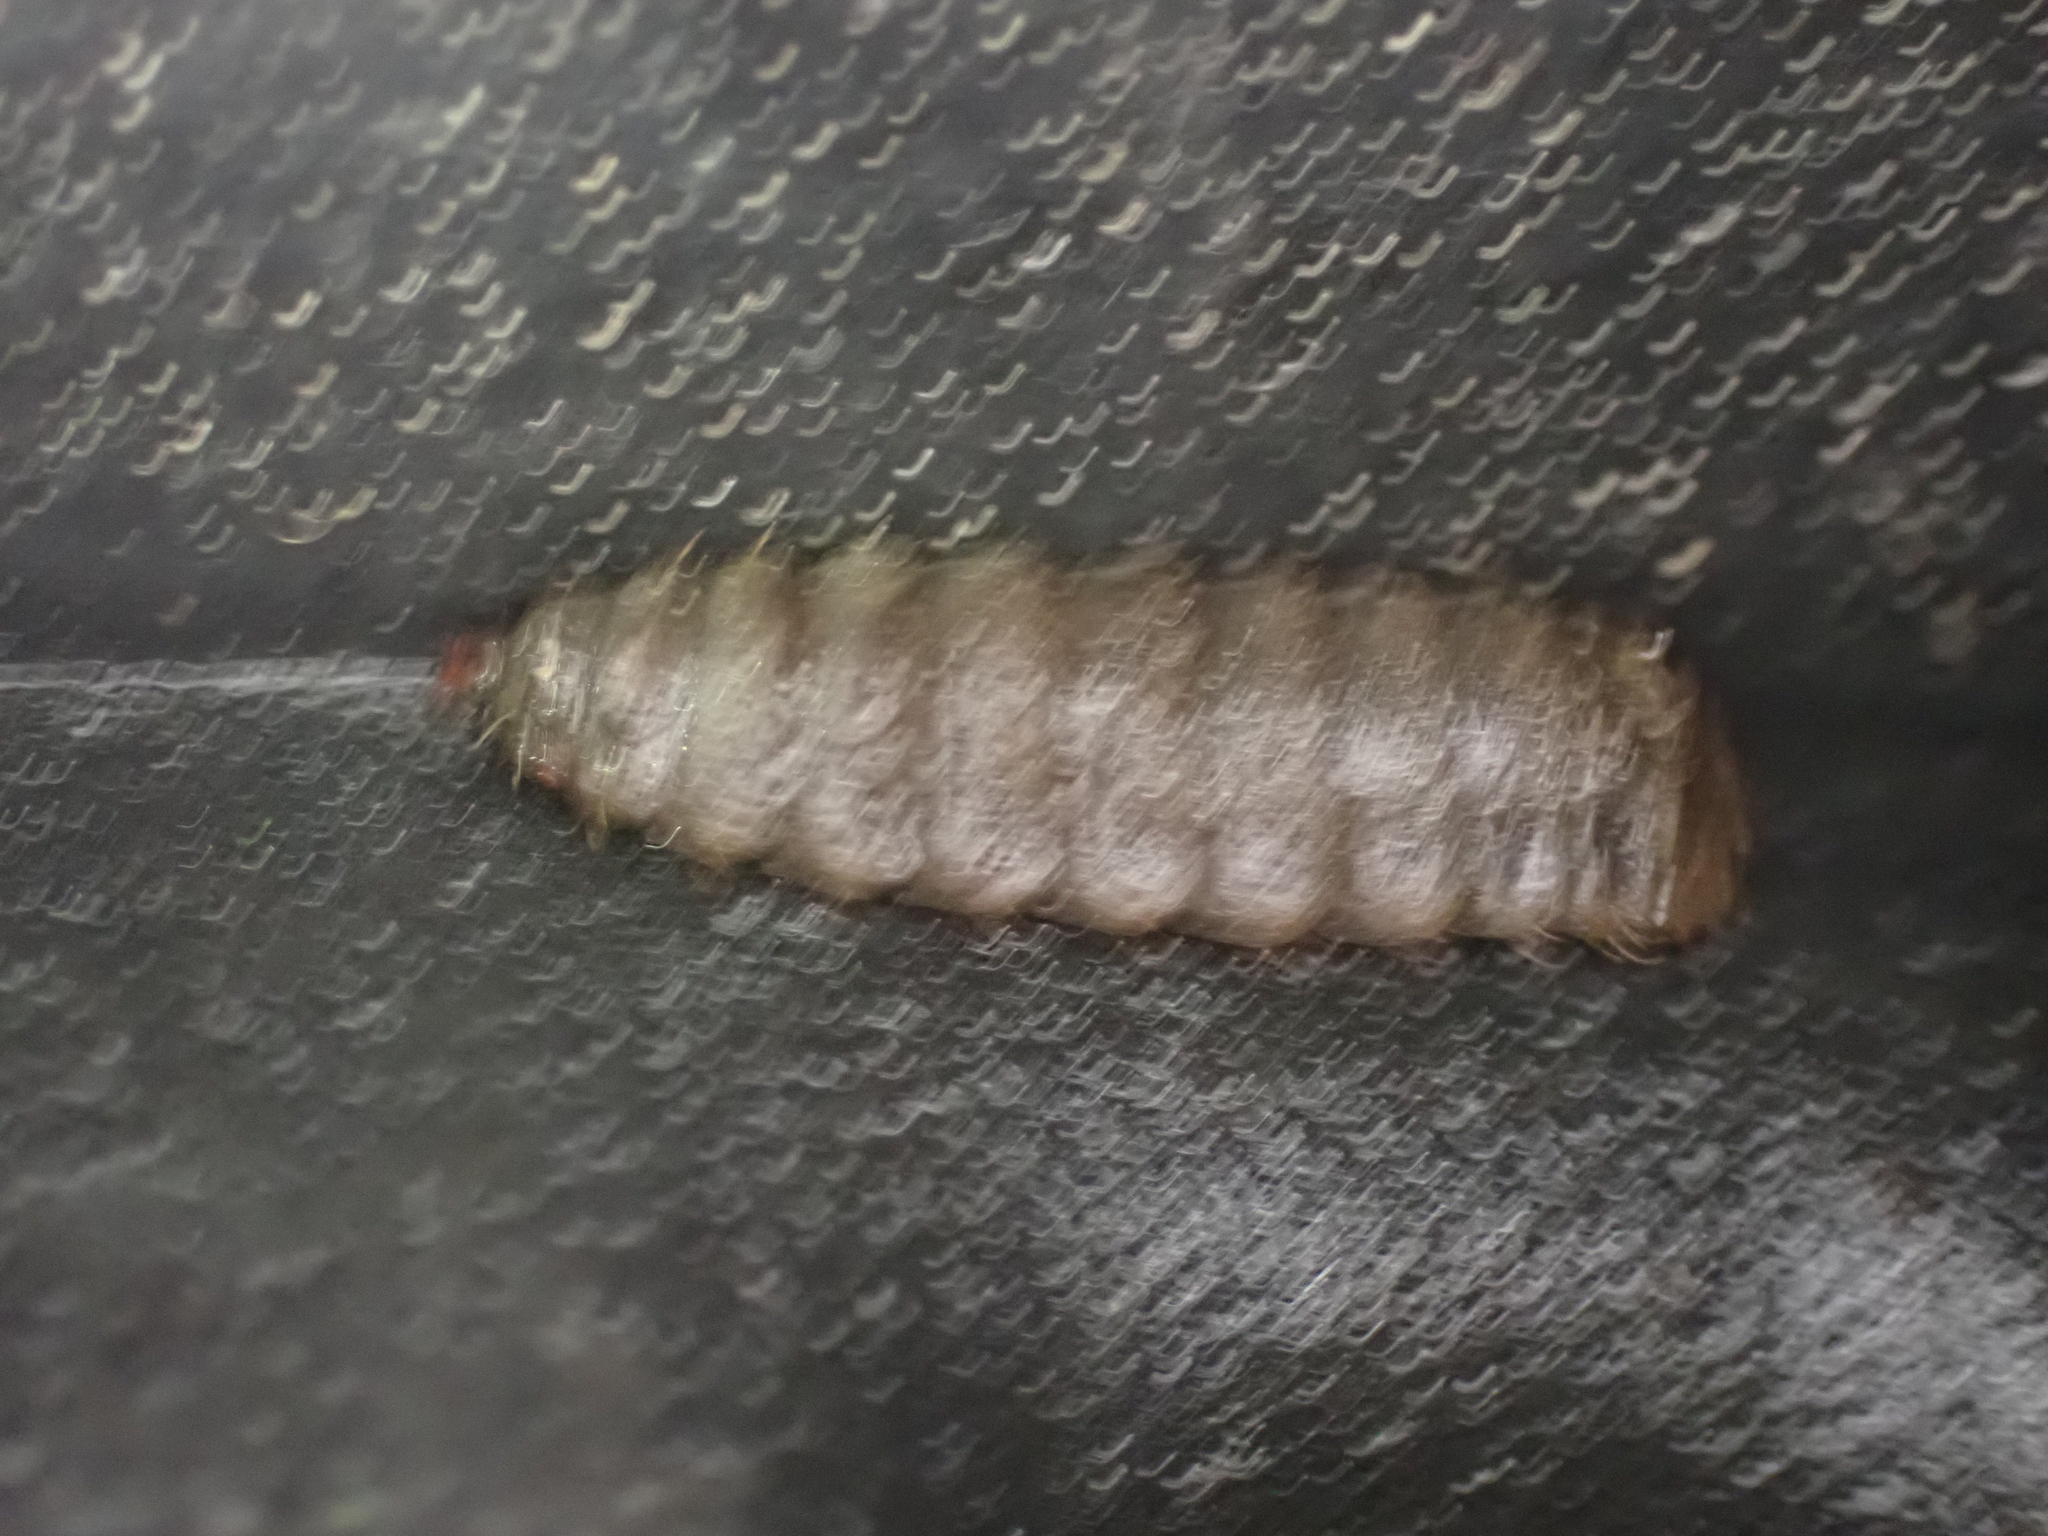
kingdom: Animalia
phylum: Arthropoda
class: Insecta
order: Diptera
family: Stratiomyidae
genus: Hermetia
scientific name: Hermetia illucens
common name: Black soldier fly
